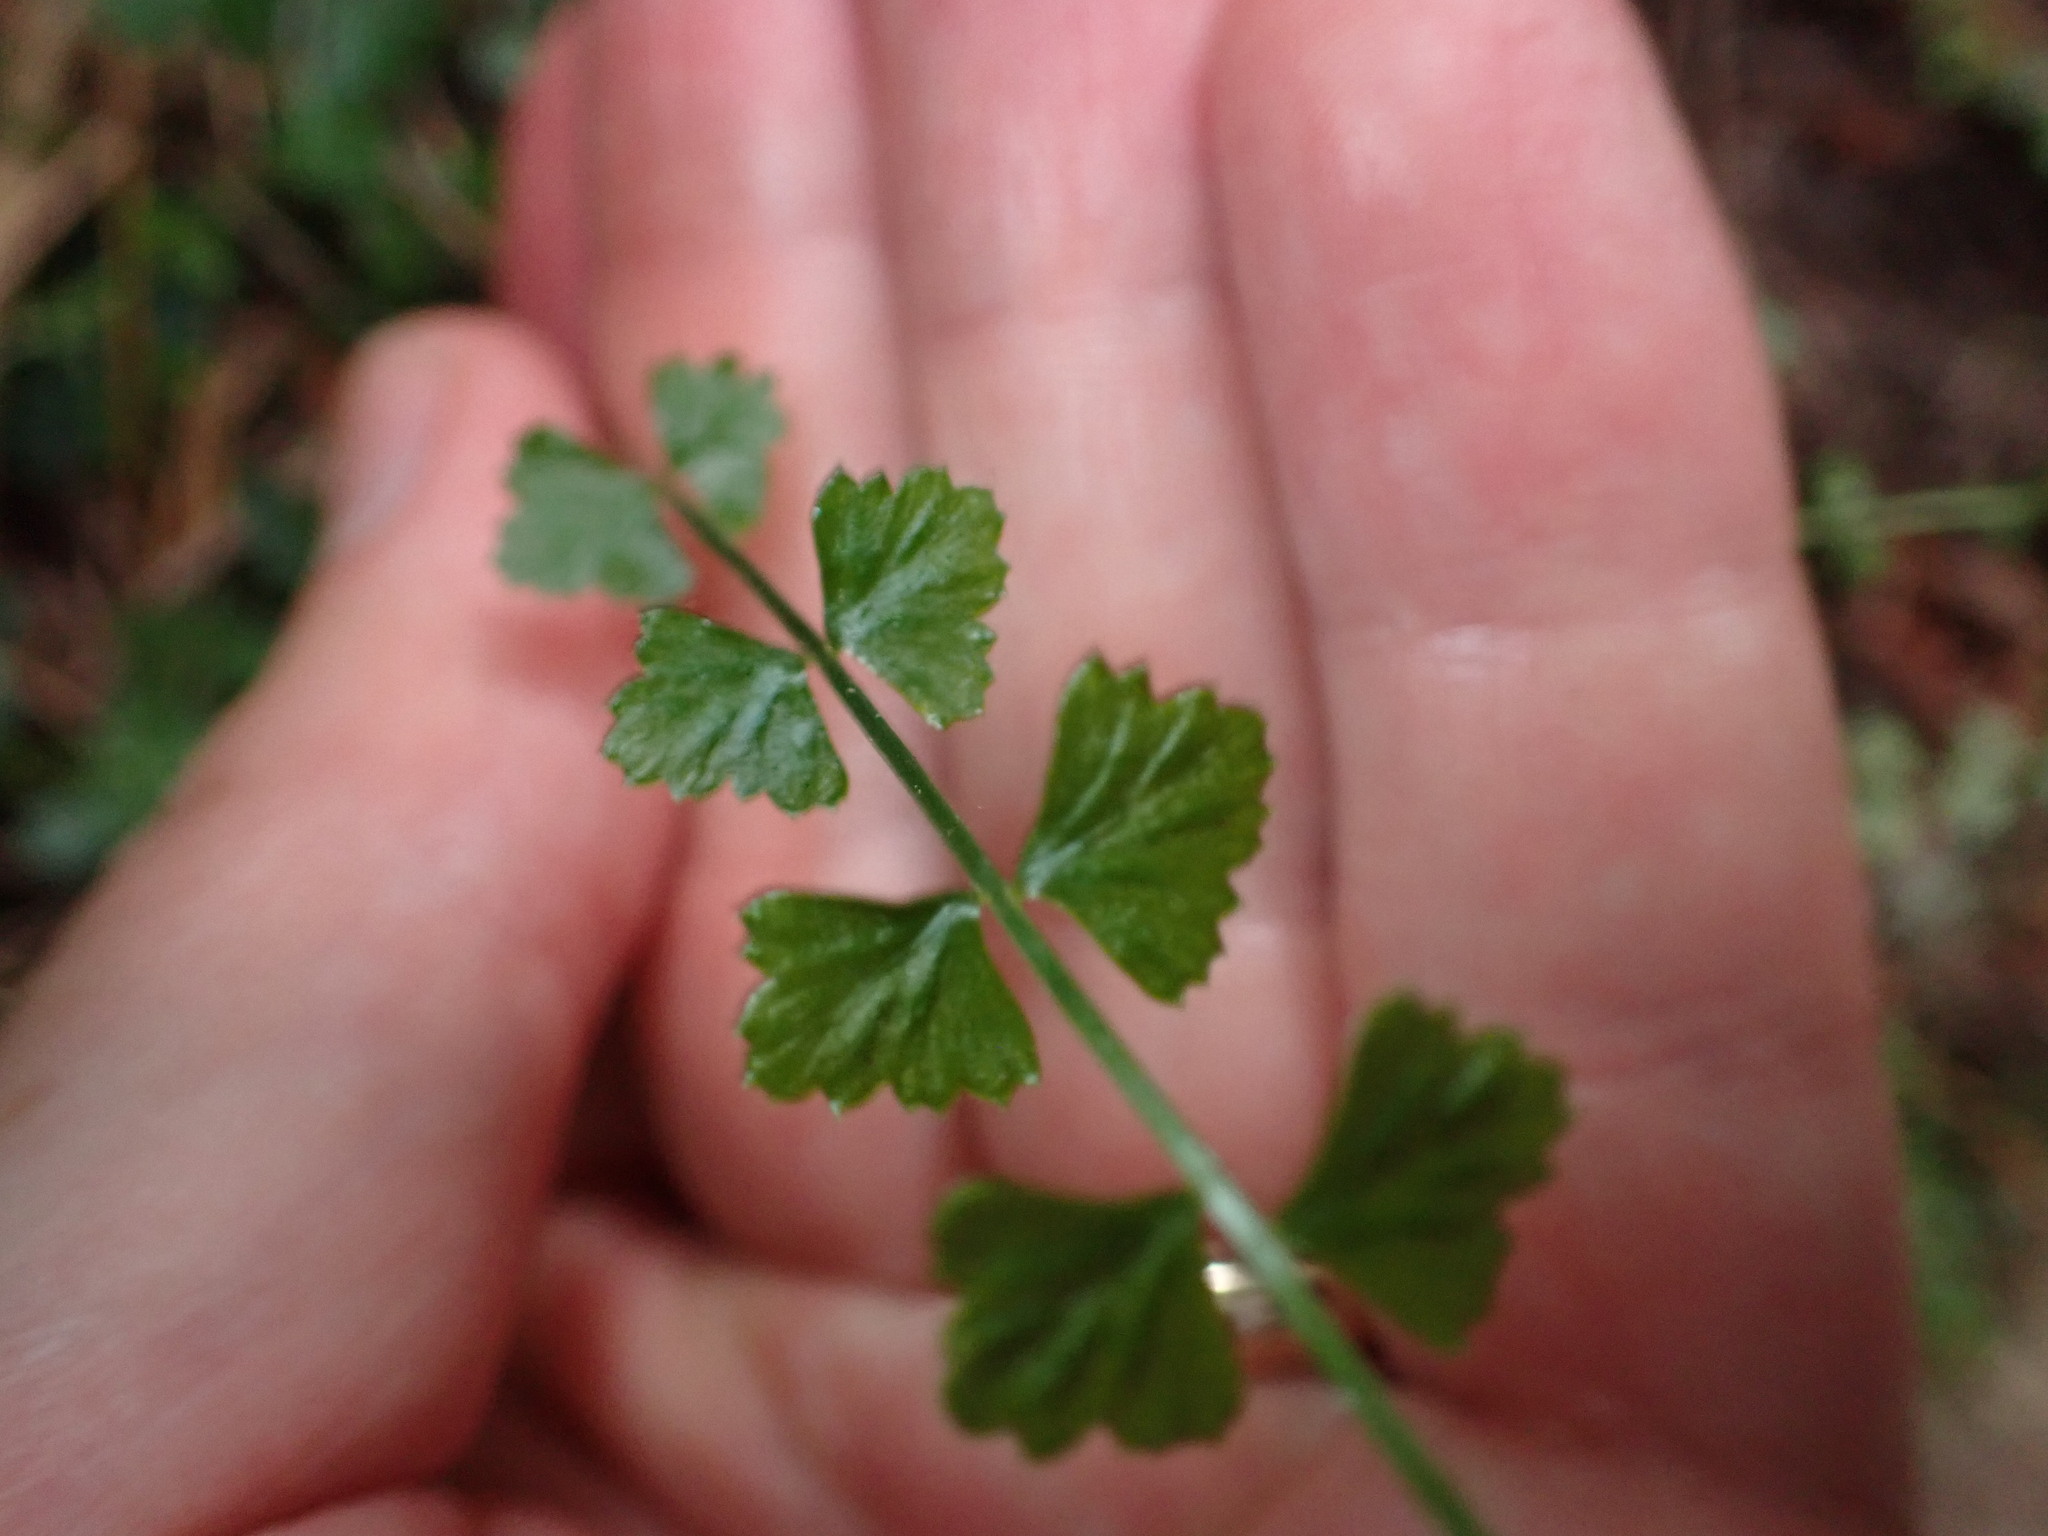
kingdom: Plantae
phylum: Tracheophyta
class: Polypodiopsida
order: Polypodiales
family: Aspleniaceae
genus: Asplenium
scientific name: Asplenium flabellifolium
